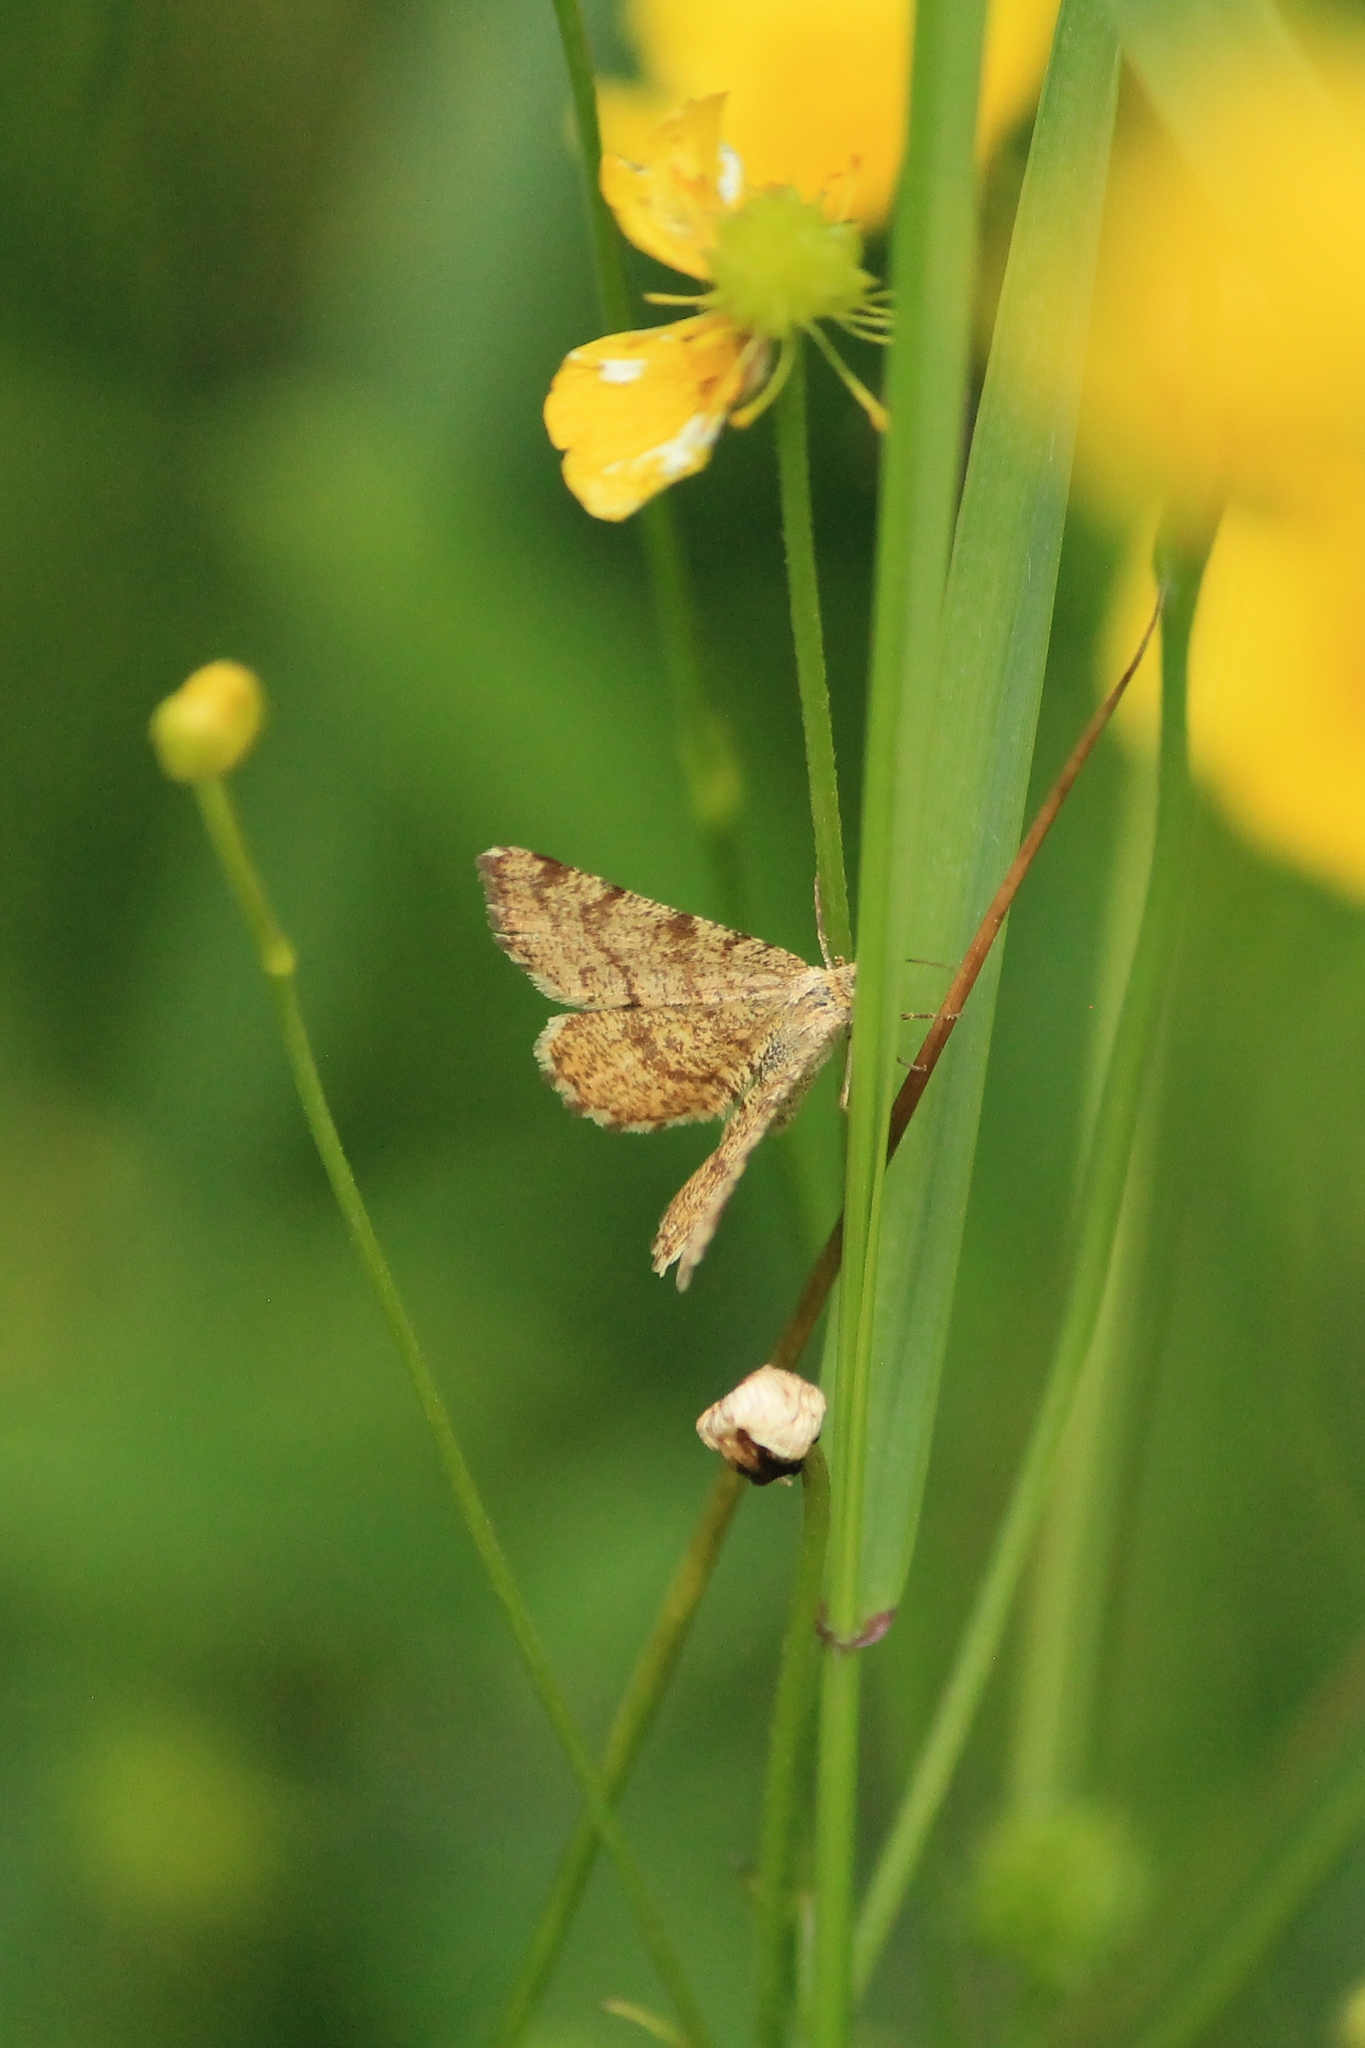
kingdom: Animalia
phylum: Arthropoda
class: Insecta
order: Lepidoptera
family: Geometridae
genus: Macaria
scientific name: Macaria brunneata
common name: Rannoch looper
